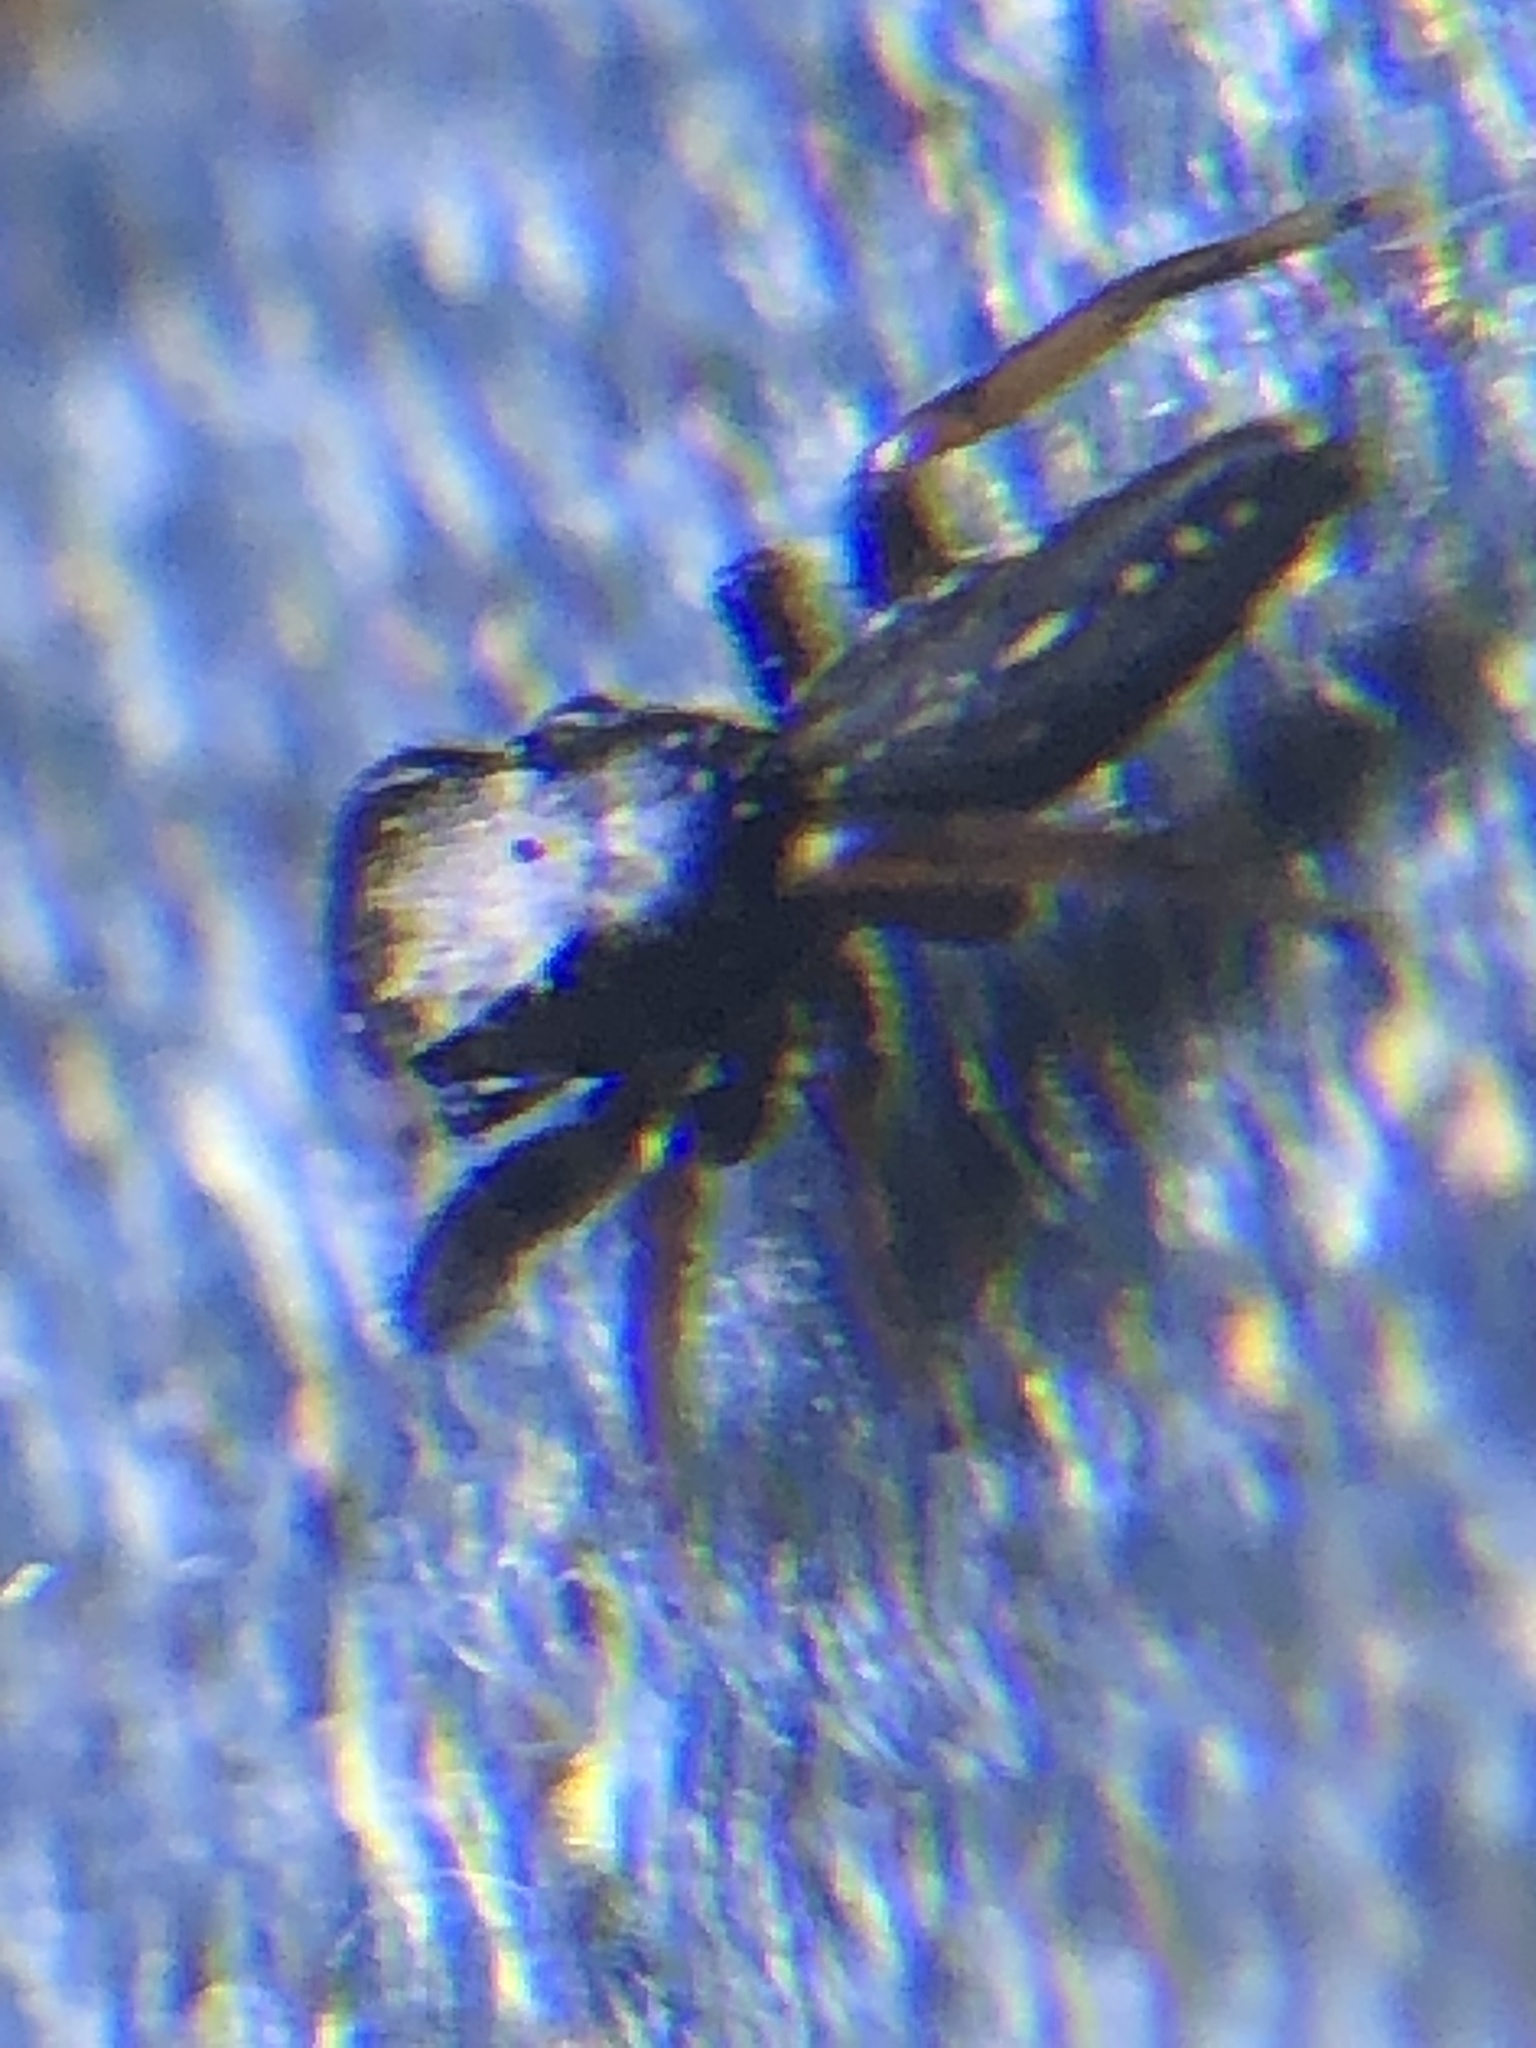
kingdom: Animalia
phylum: Arthropoda
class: Arachnida
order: Araneae
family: Salticidae
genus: Metacyrba
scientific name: Metacyrba taeniola
